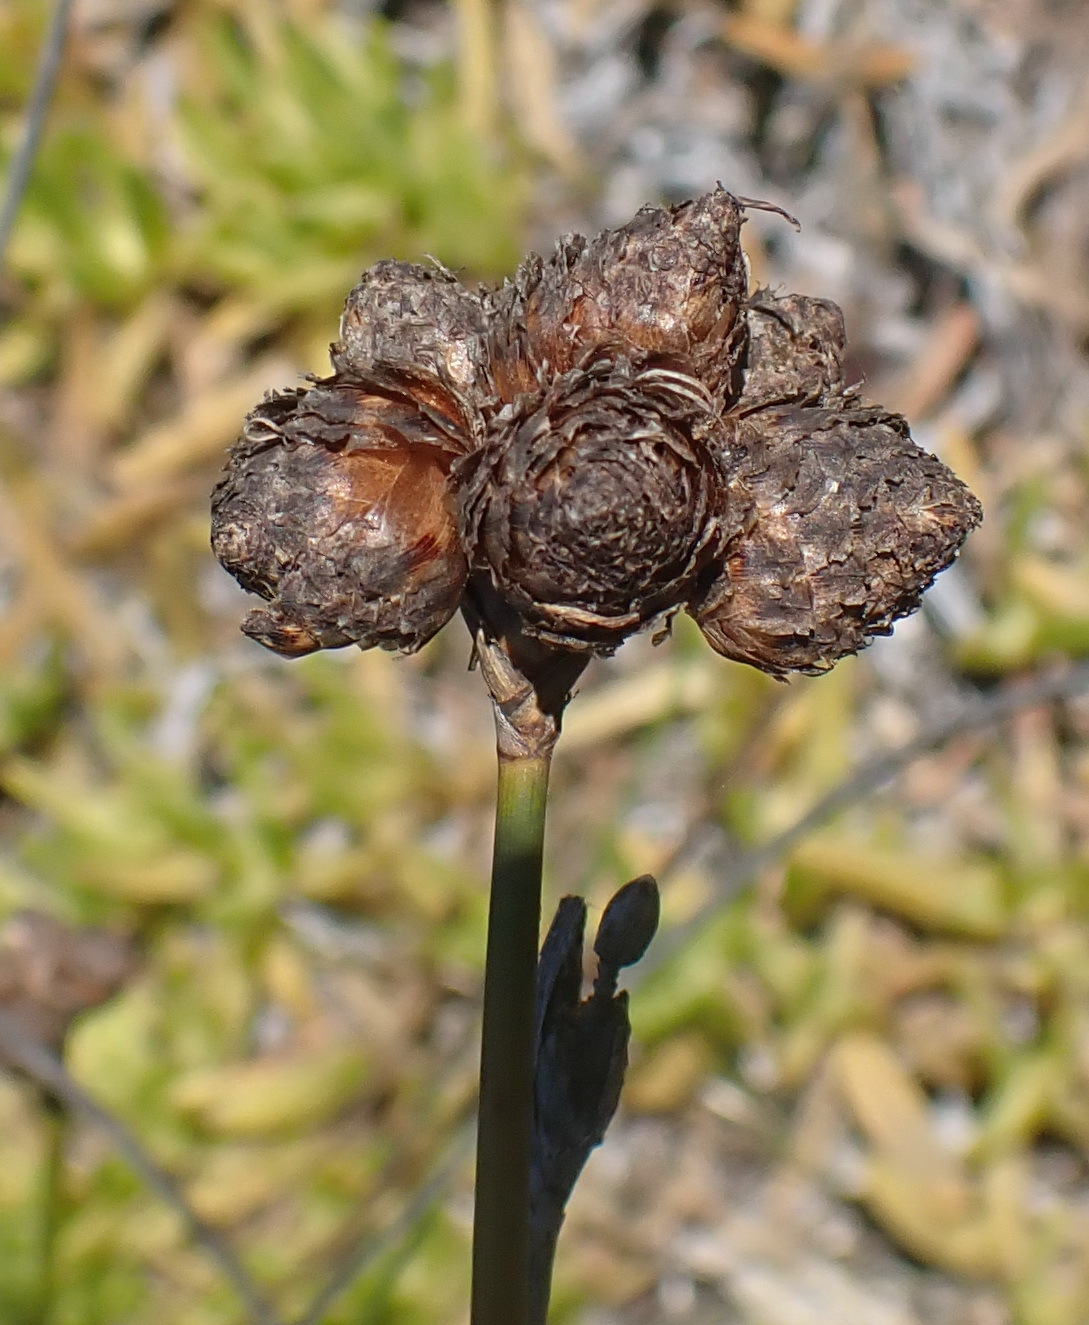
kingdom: Plantae
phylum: Tracheophyta
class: Liliopsida
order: Poales
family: Cyperaceae
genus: Hellmuthia
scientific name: Hellmuthia membranacea
